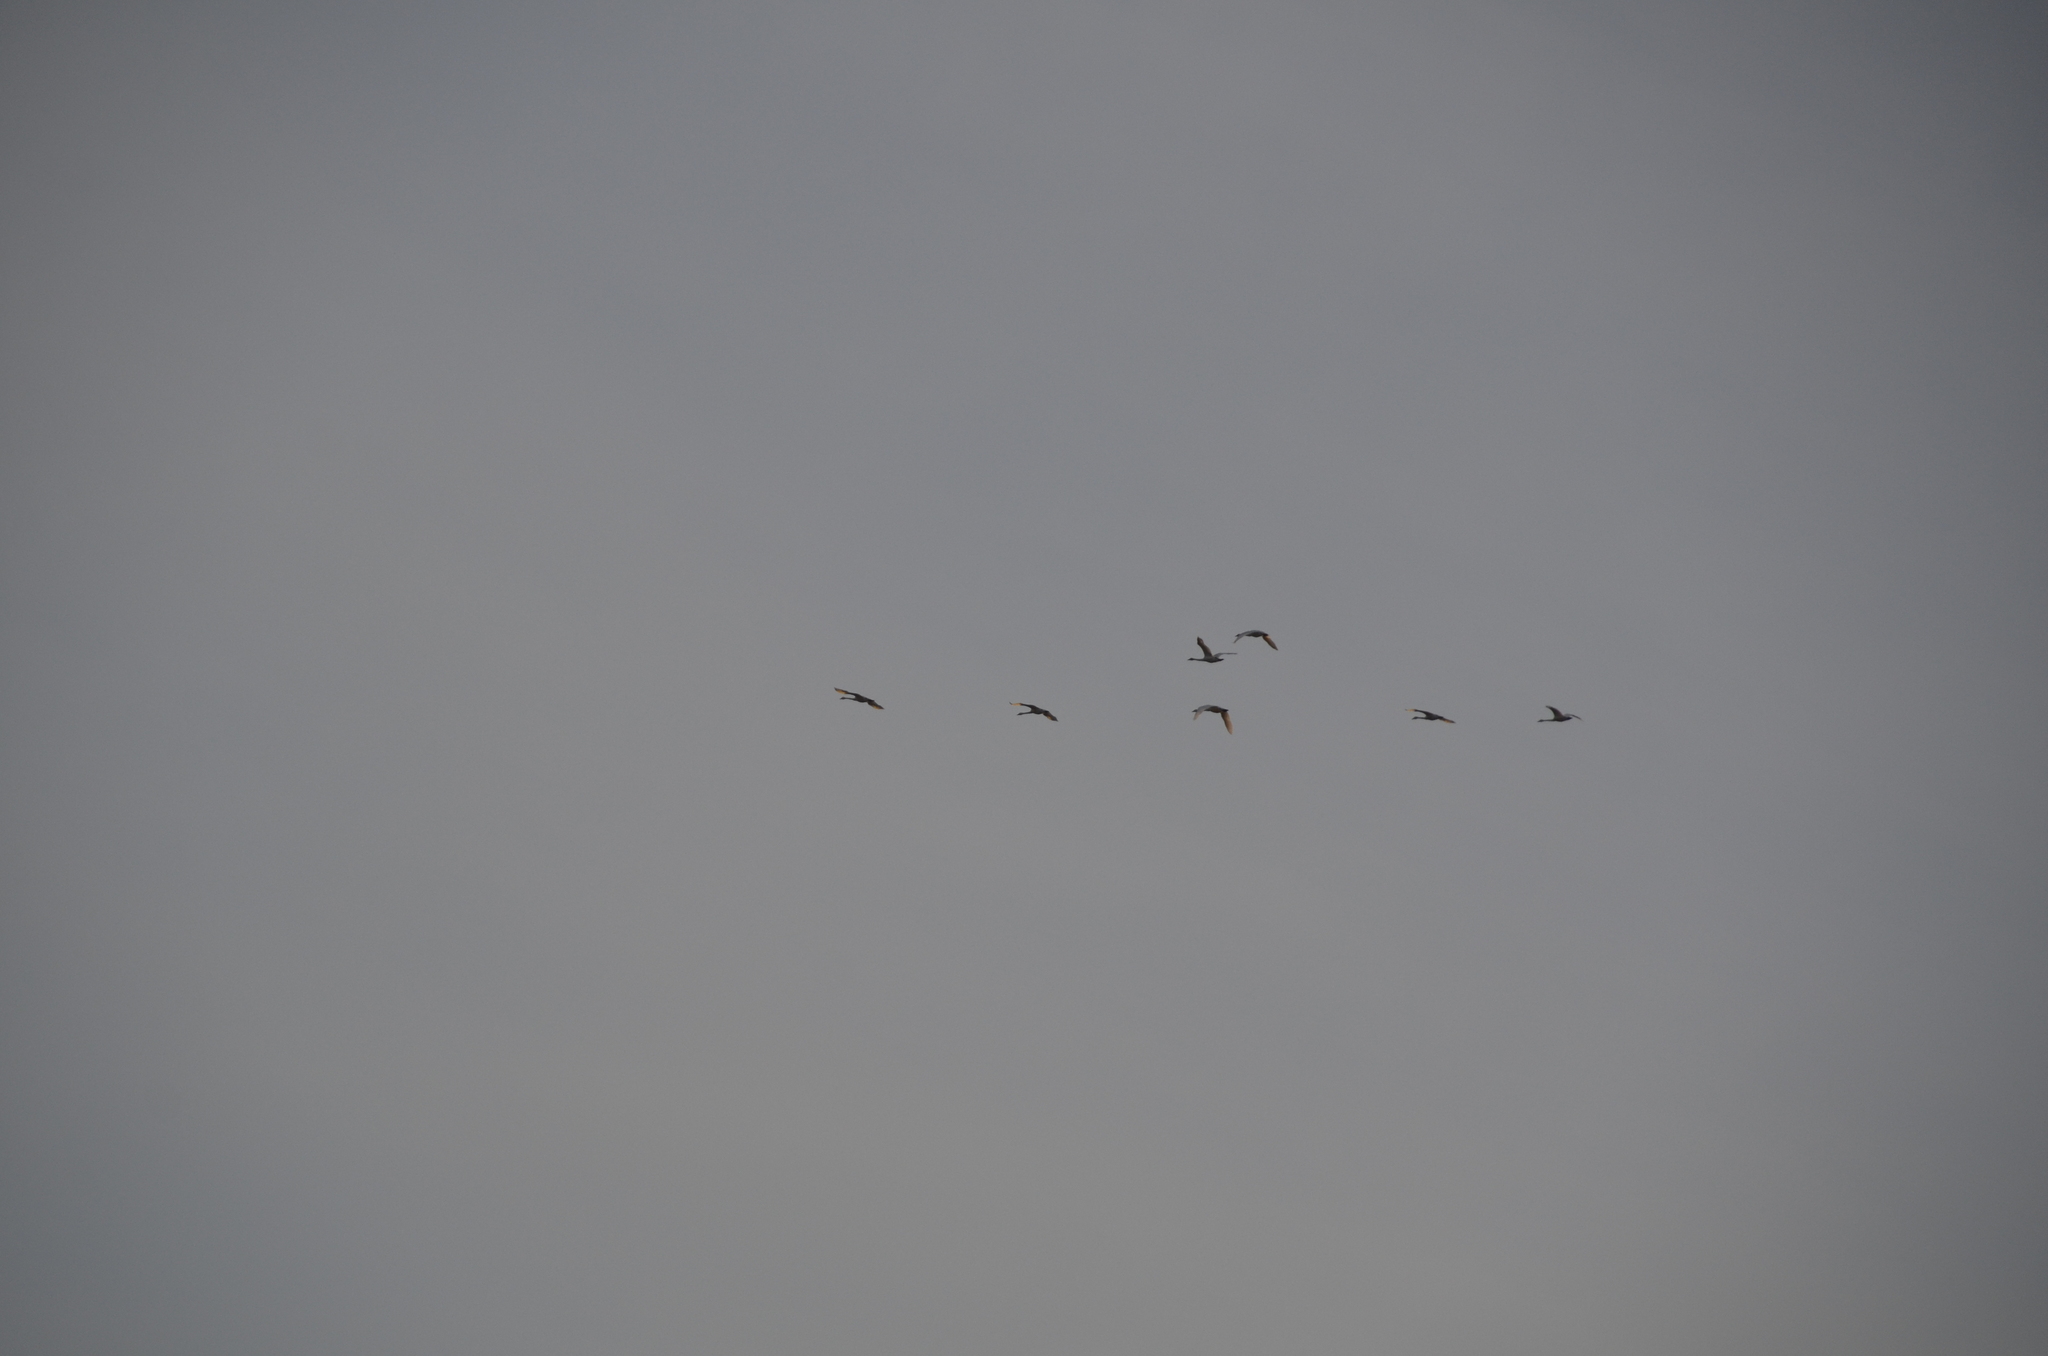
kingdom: Animalia
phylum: Chordata
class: Aves
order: Anseriformes
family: Anatidae
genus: Cygnus
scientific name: Cygnus buccinator
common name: Trumpeter swan
